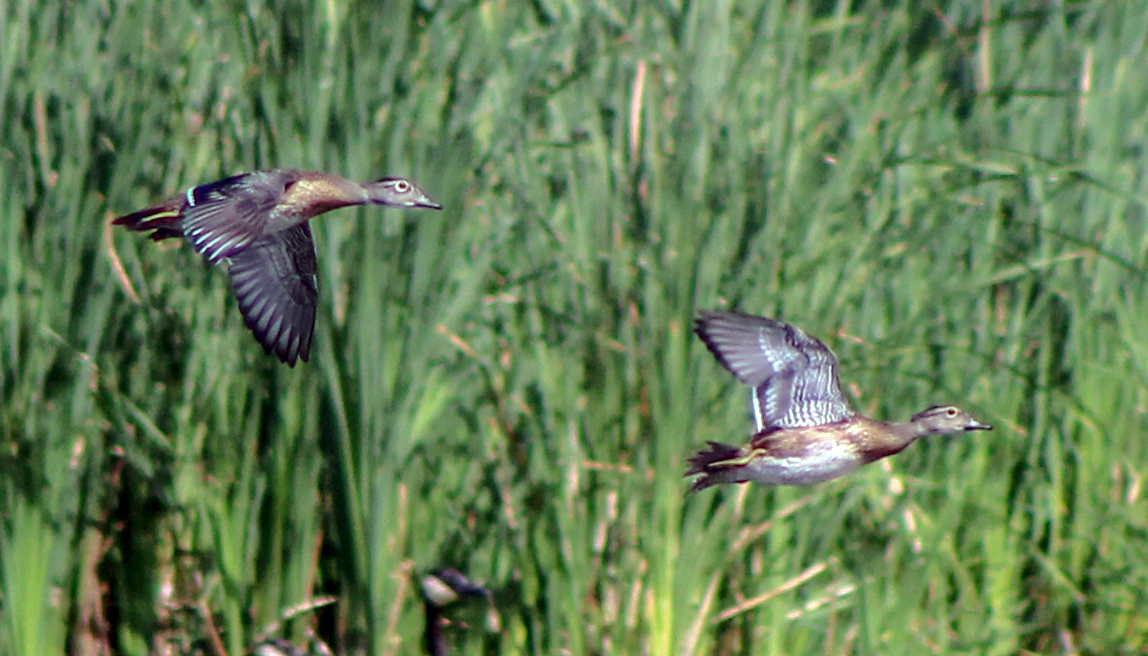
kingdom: Animalia
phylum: Chordata
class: Aves
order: Anseriformes
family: Anatidae
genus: Aix
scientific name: Aix sponsa
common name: Wood duck
